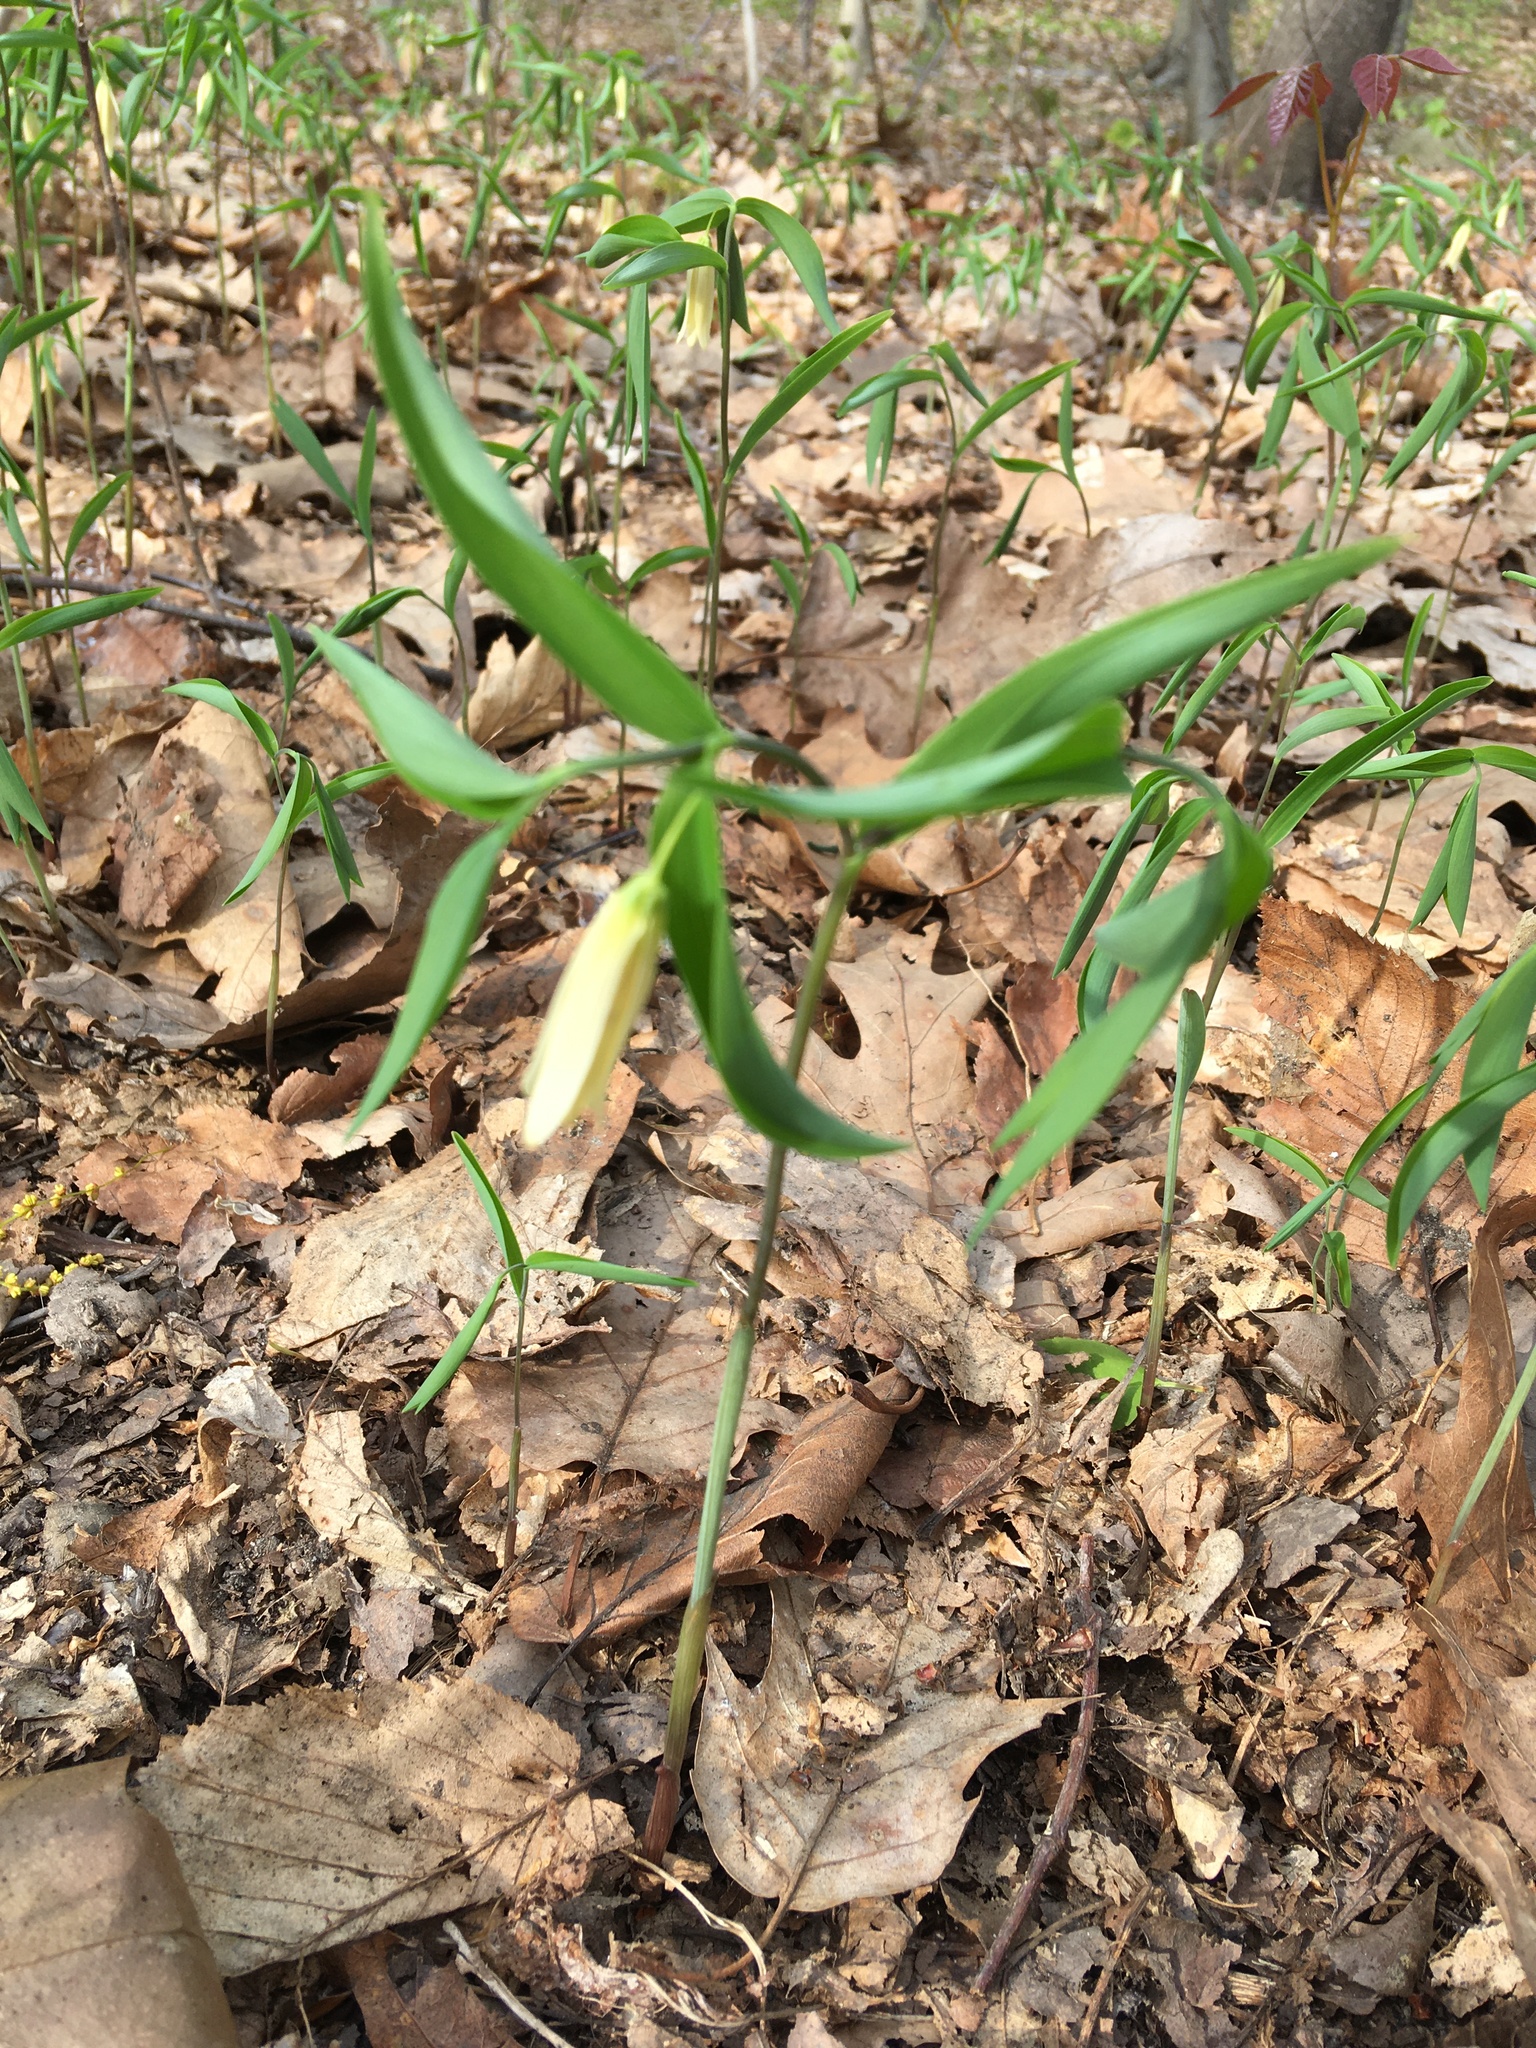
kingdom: Plantae
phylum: Tracheophyta
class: Liliopsida
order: Liliales
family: Colchicaceae
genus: Uvularia
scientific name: Uvularia sessilifolia
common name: Straw-lily
